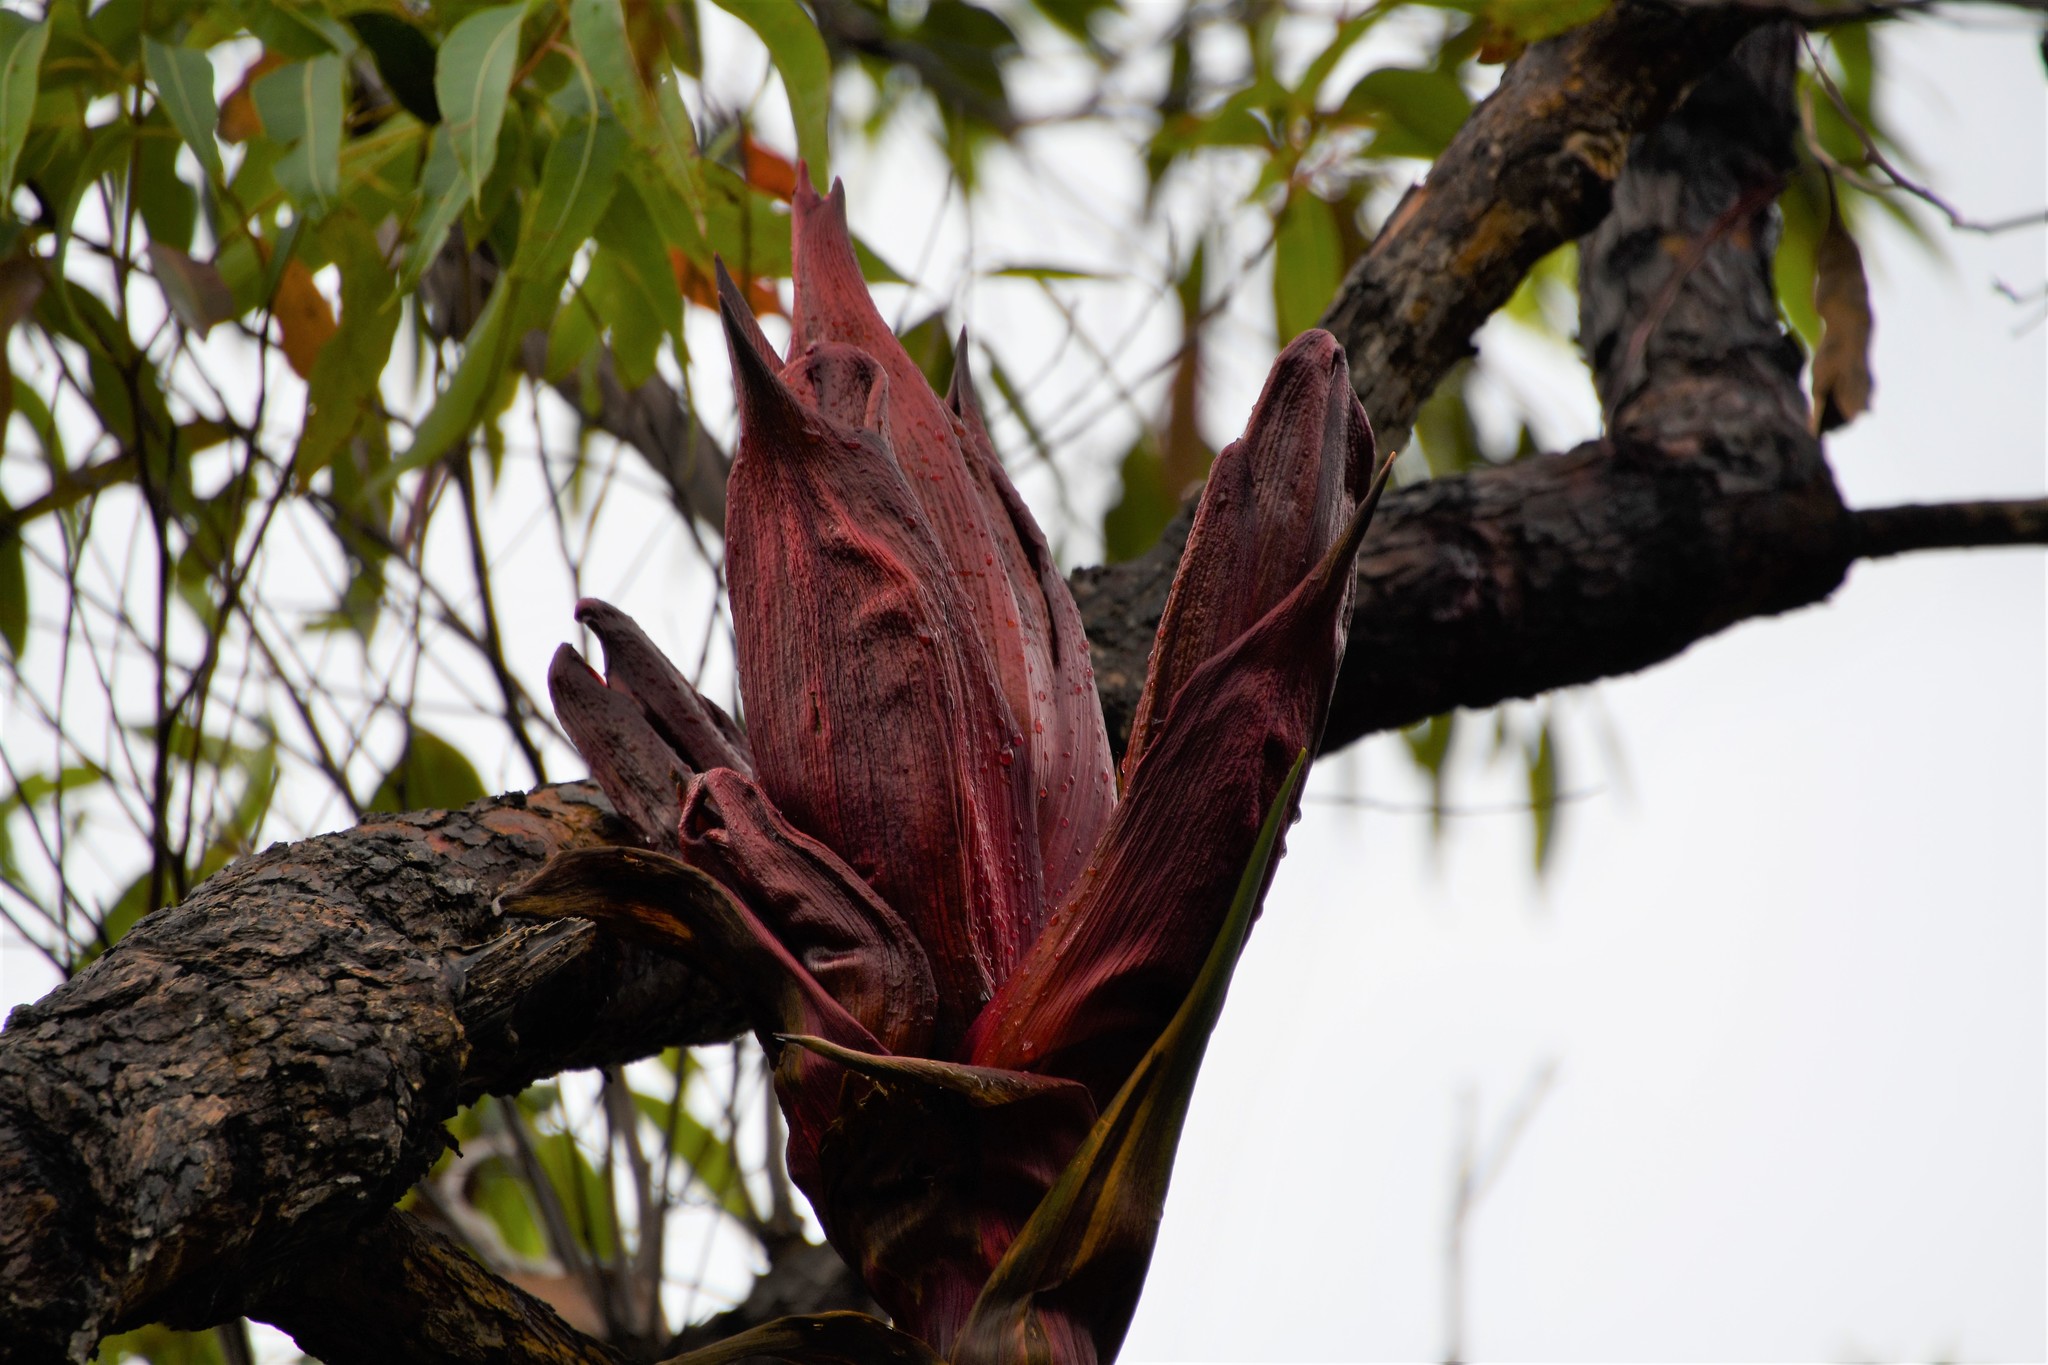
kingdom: Plantae
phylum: Tracheophyta
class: Liliopsida
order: Asparagales
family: Doryanthaceae
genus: Doryanthes
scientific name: Doryanthes excelsa
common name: Giant-lily
